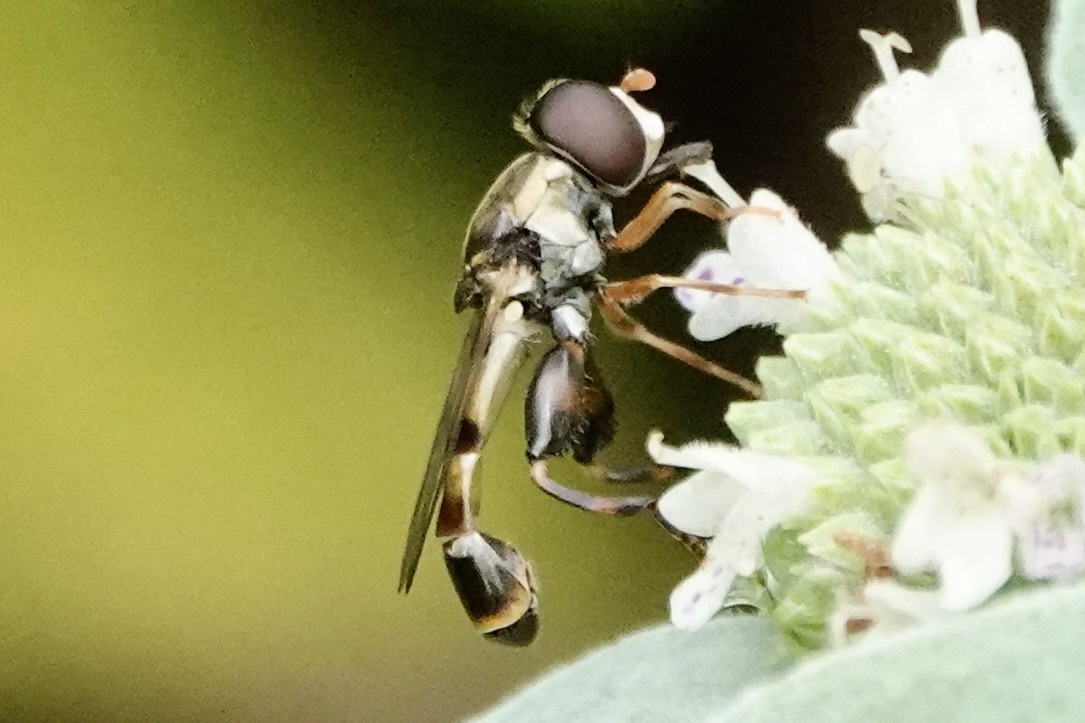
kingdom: Animalia
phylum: Arthropoda
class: Insecta
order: Diptera
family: Syrphidae
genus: Syritta
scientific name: Syritta pipiens
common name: Hover fly
